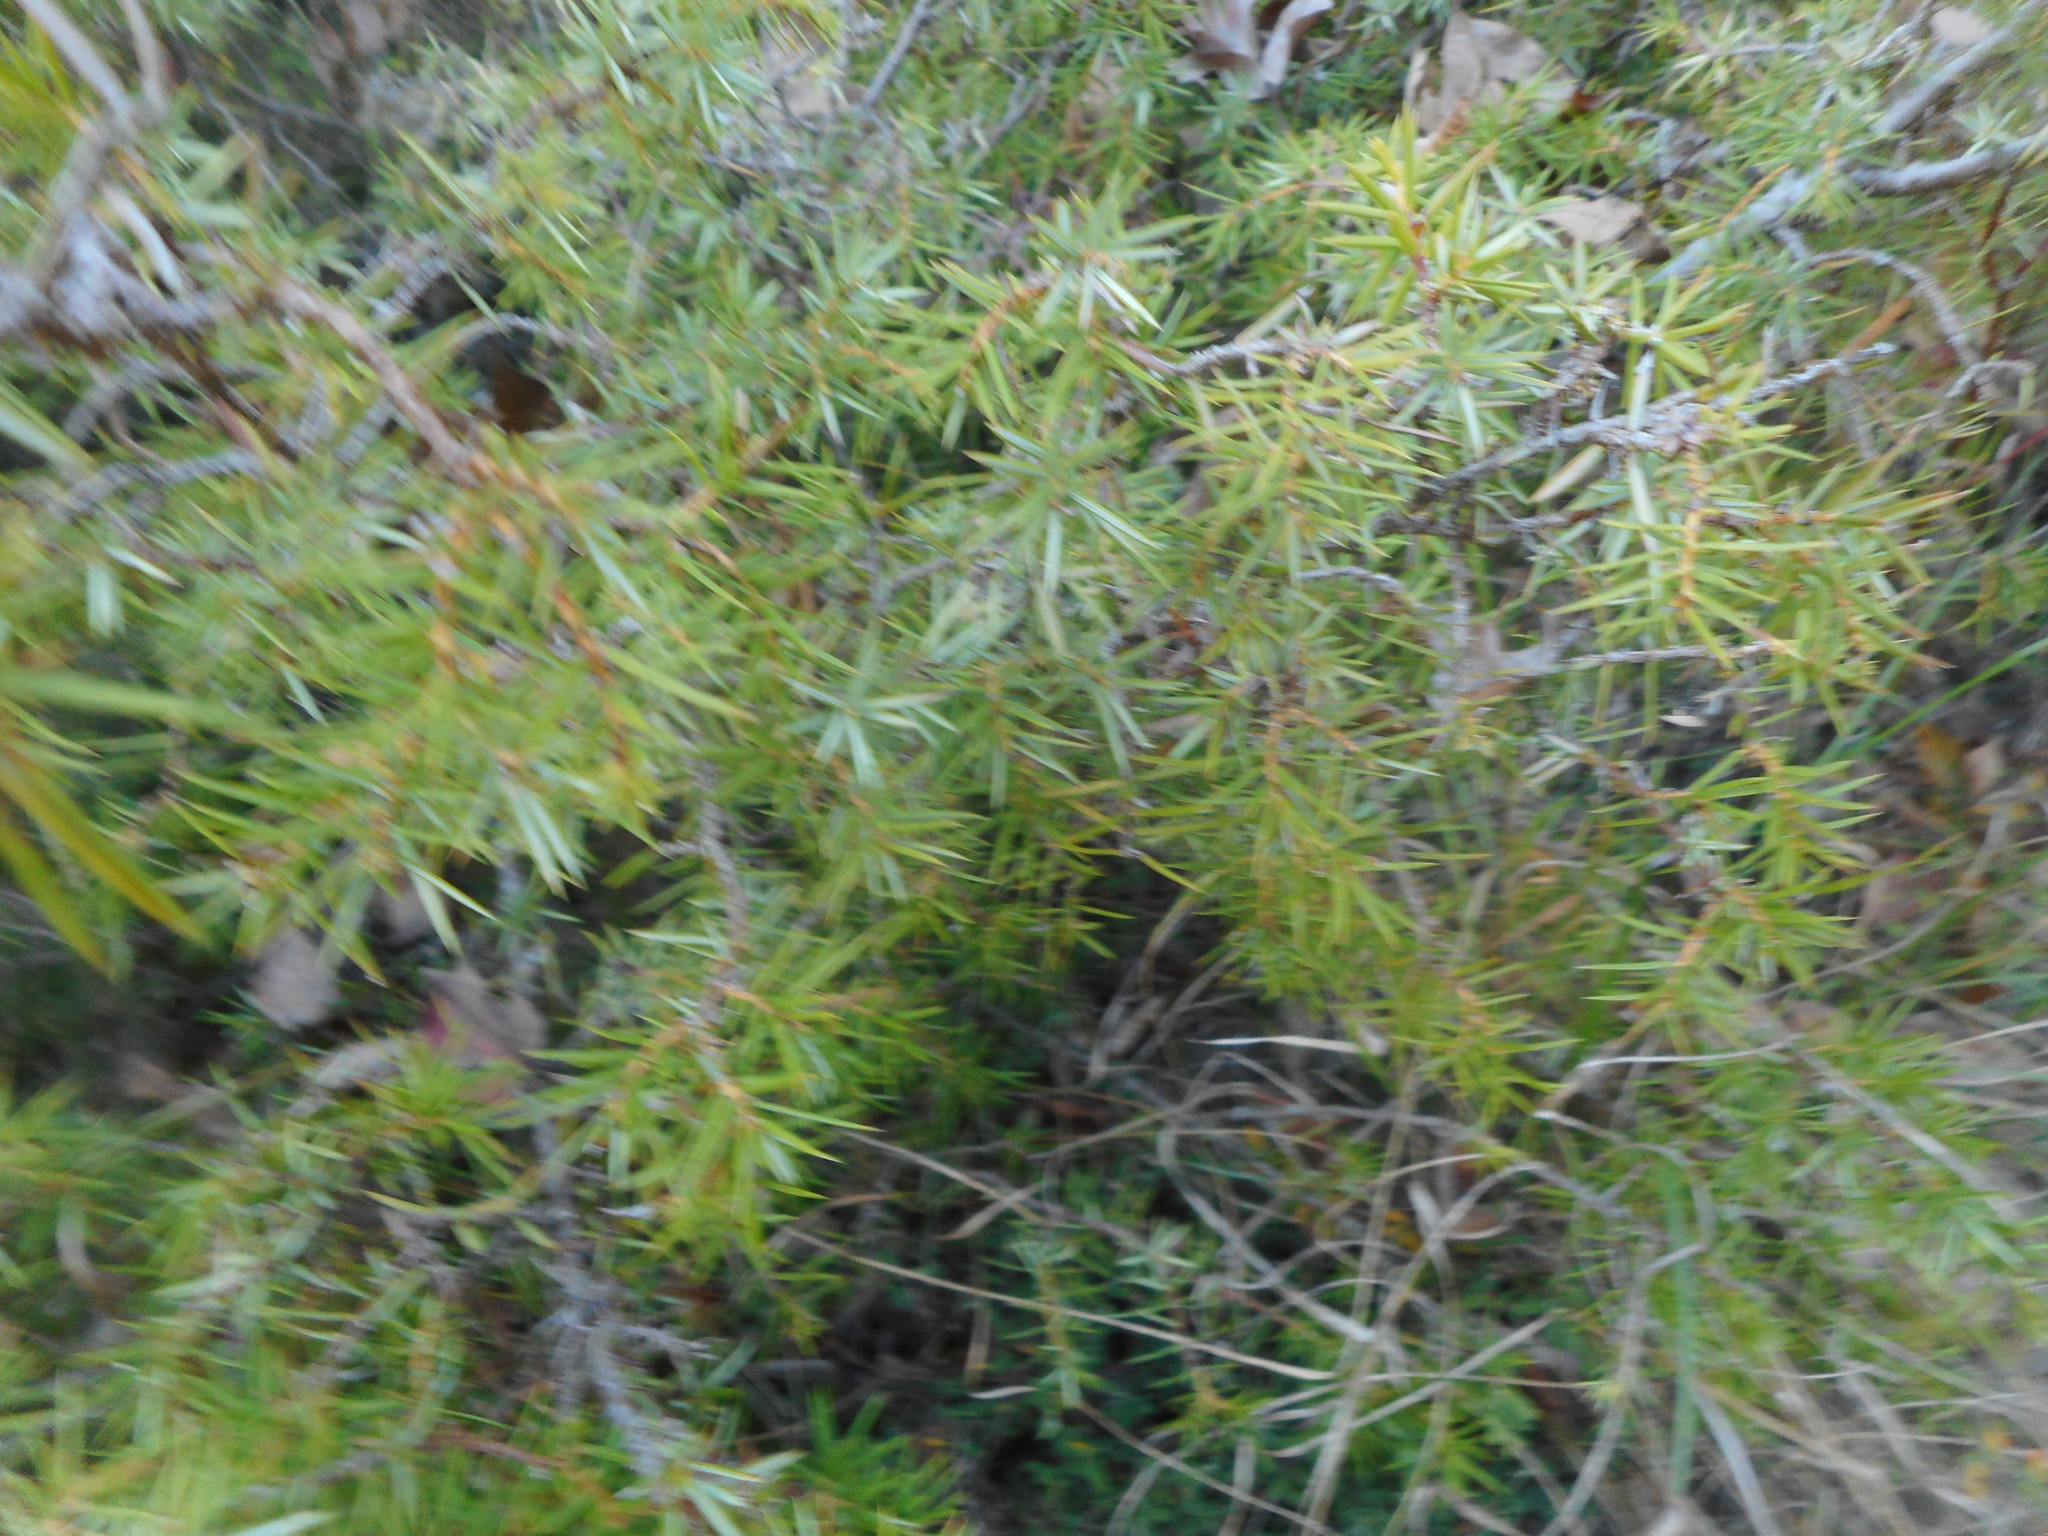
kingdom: Plantae
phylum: Tracheophyta
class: Pinopsida
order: Pinales
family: Cupressaceae
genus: Juniperus
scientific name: Juniperus communis
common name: Common juniper
